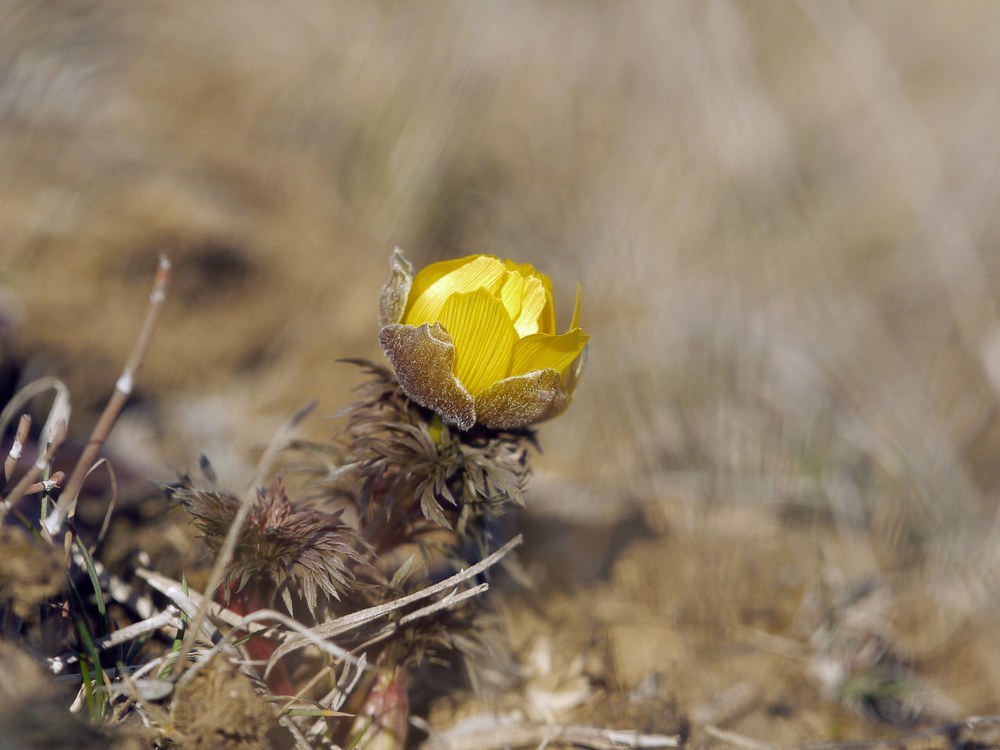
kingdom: Plantae
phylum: Tracheophyta
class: Magnoliopsida
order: Ranunculales
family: Ranunculaceae
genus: Adonis
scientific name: Adonis vernalis
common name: Yellow pheasants-eye
